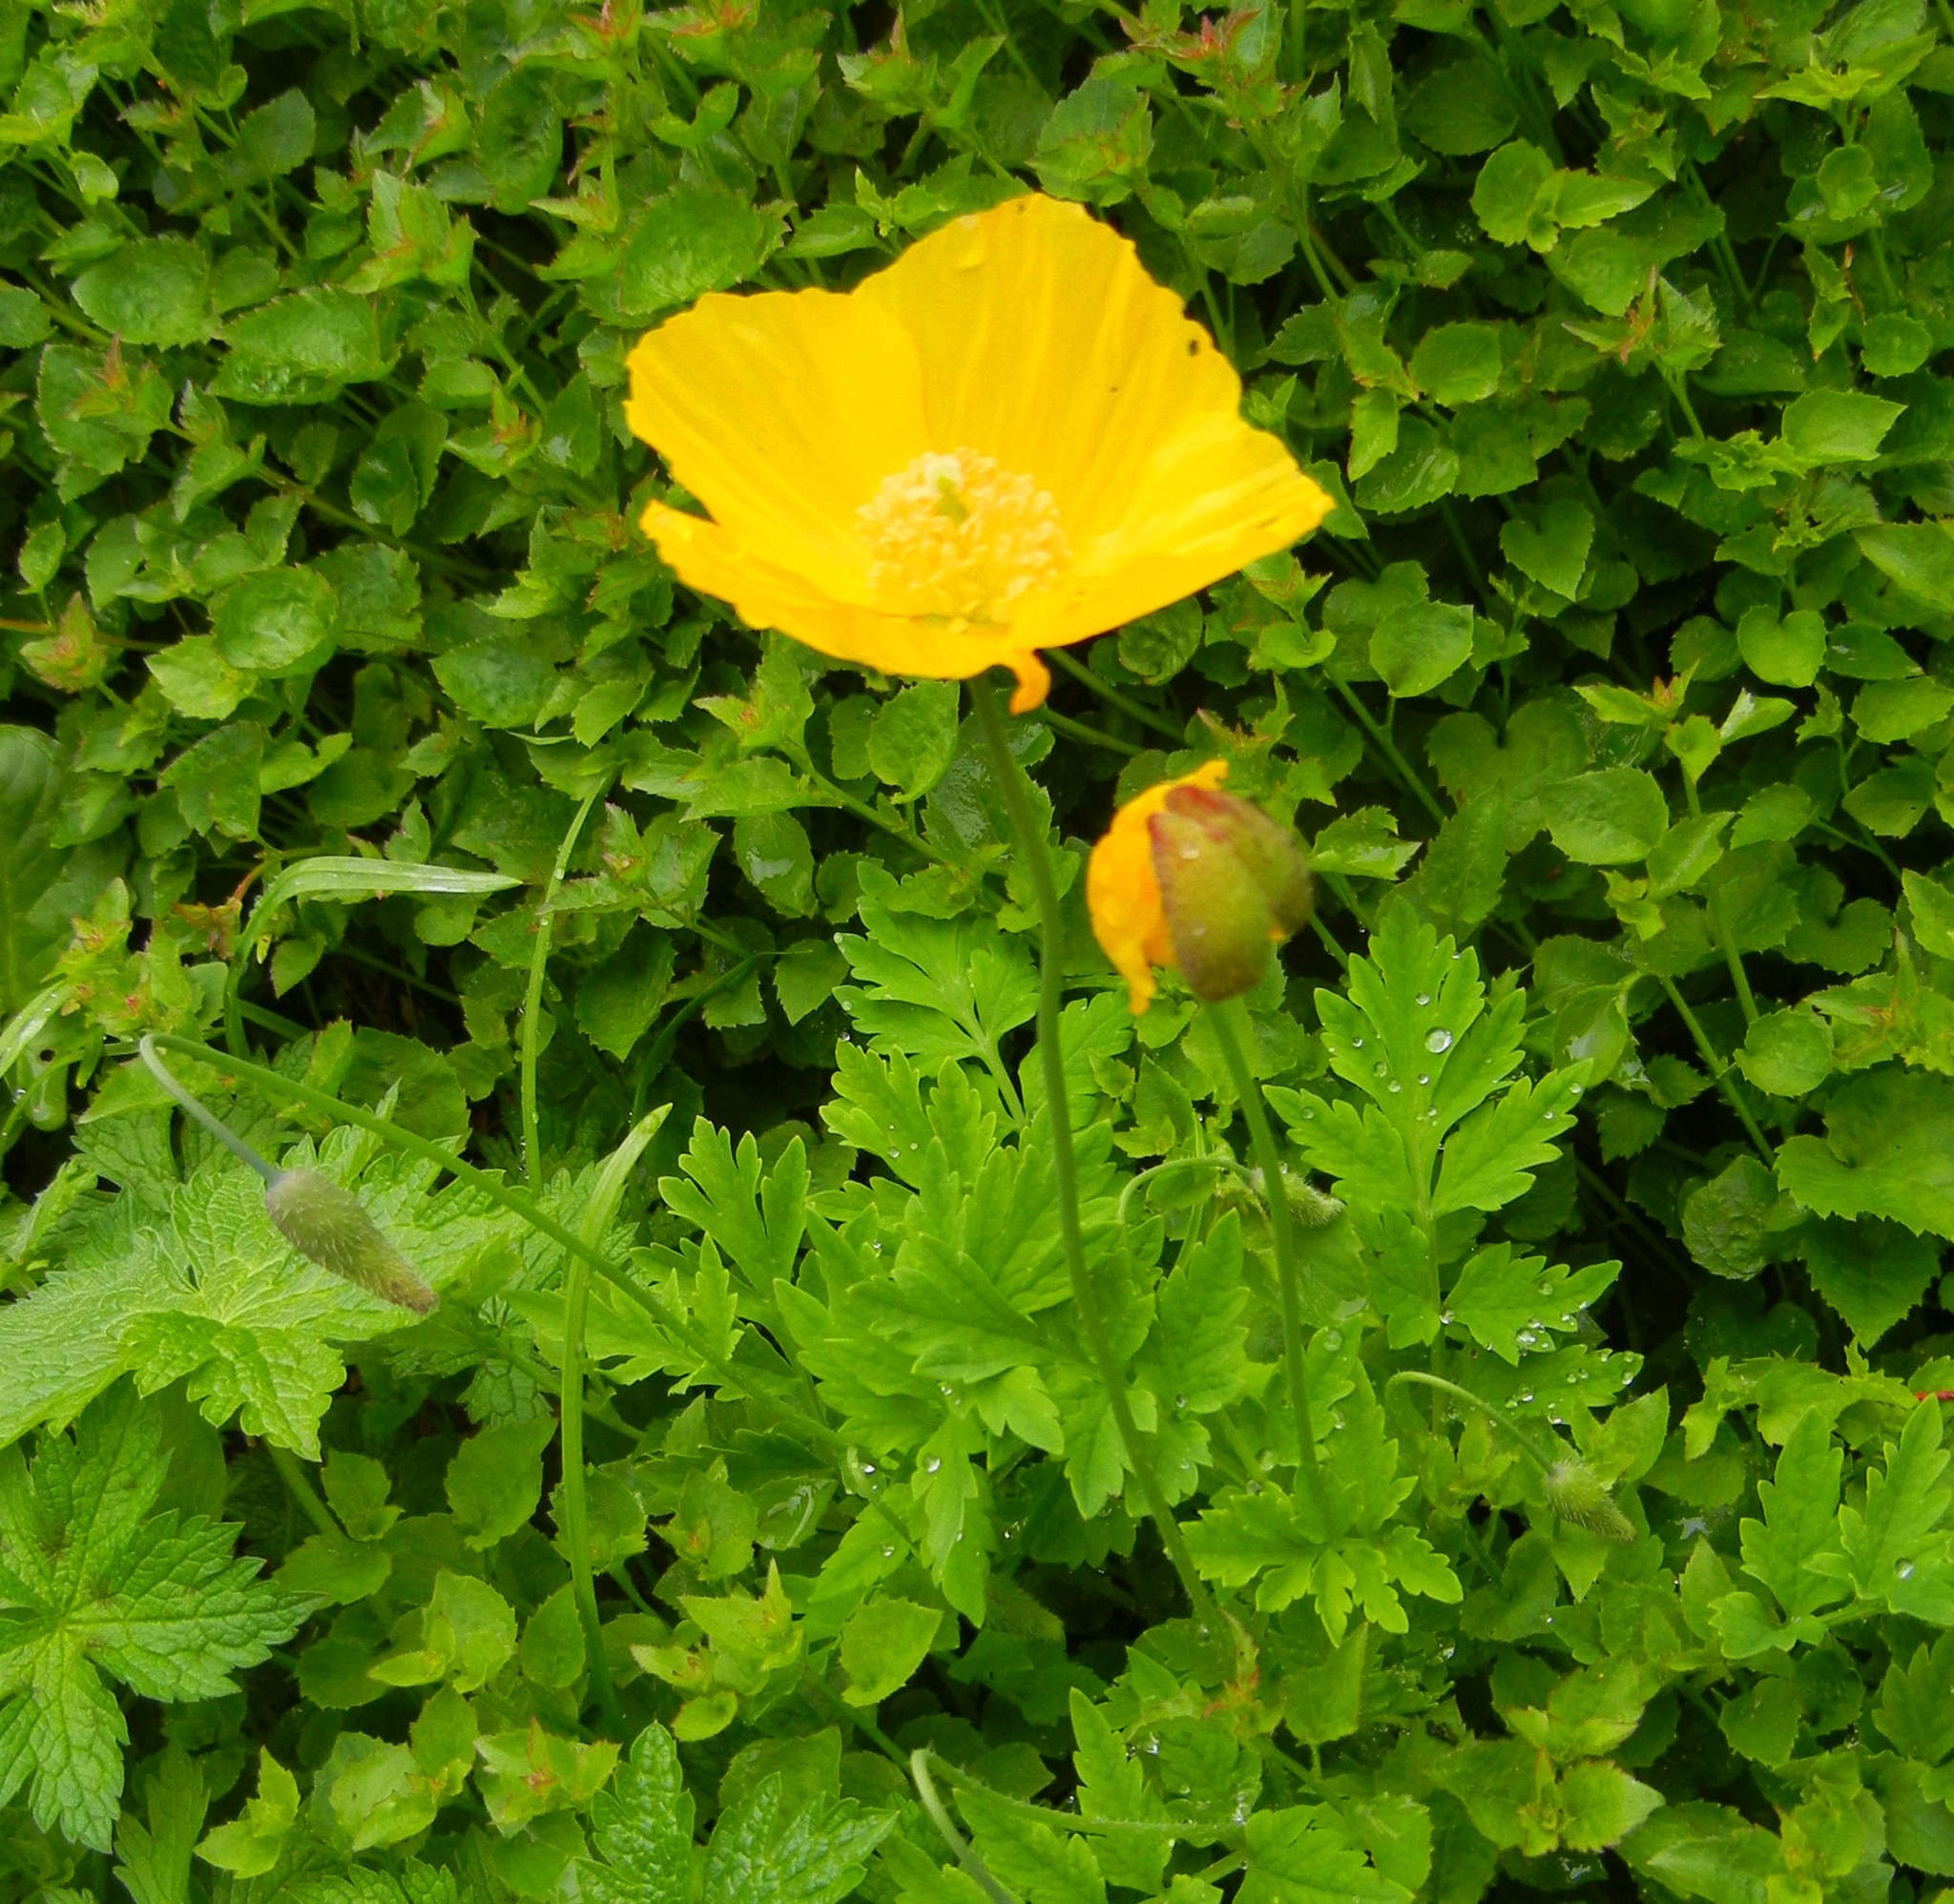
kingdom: Plantae
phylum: Tracheophyta
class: Magnoliopsida
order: Ranunculales
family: Papaveraceae
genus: Papaver
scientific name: Papaver cambricum
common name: Poppy
